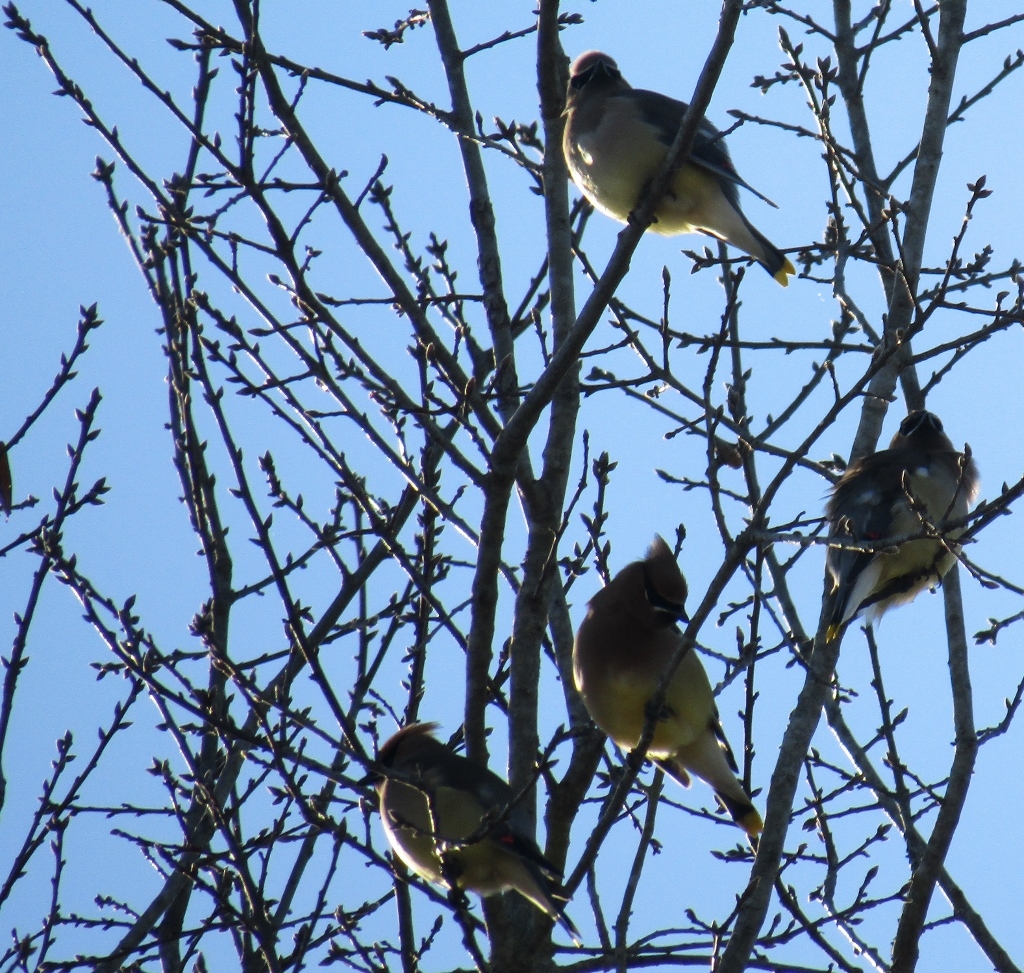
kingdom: Animalia
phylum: Chordata
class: Aves
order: Passeriformes
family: Bombycillidae
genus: Bombycilla
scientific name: Bombycilla cedrorum
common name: Cedar waxwing
